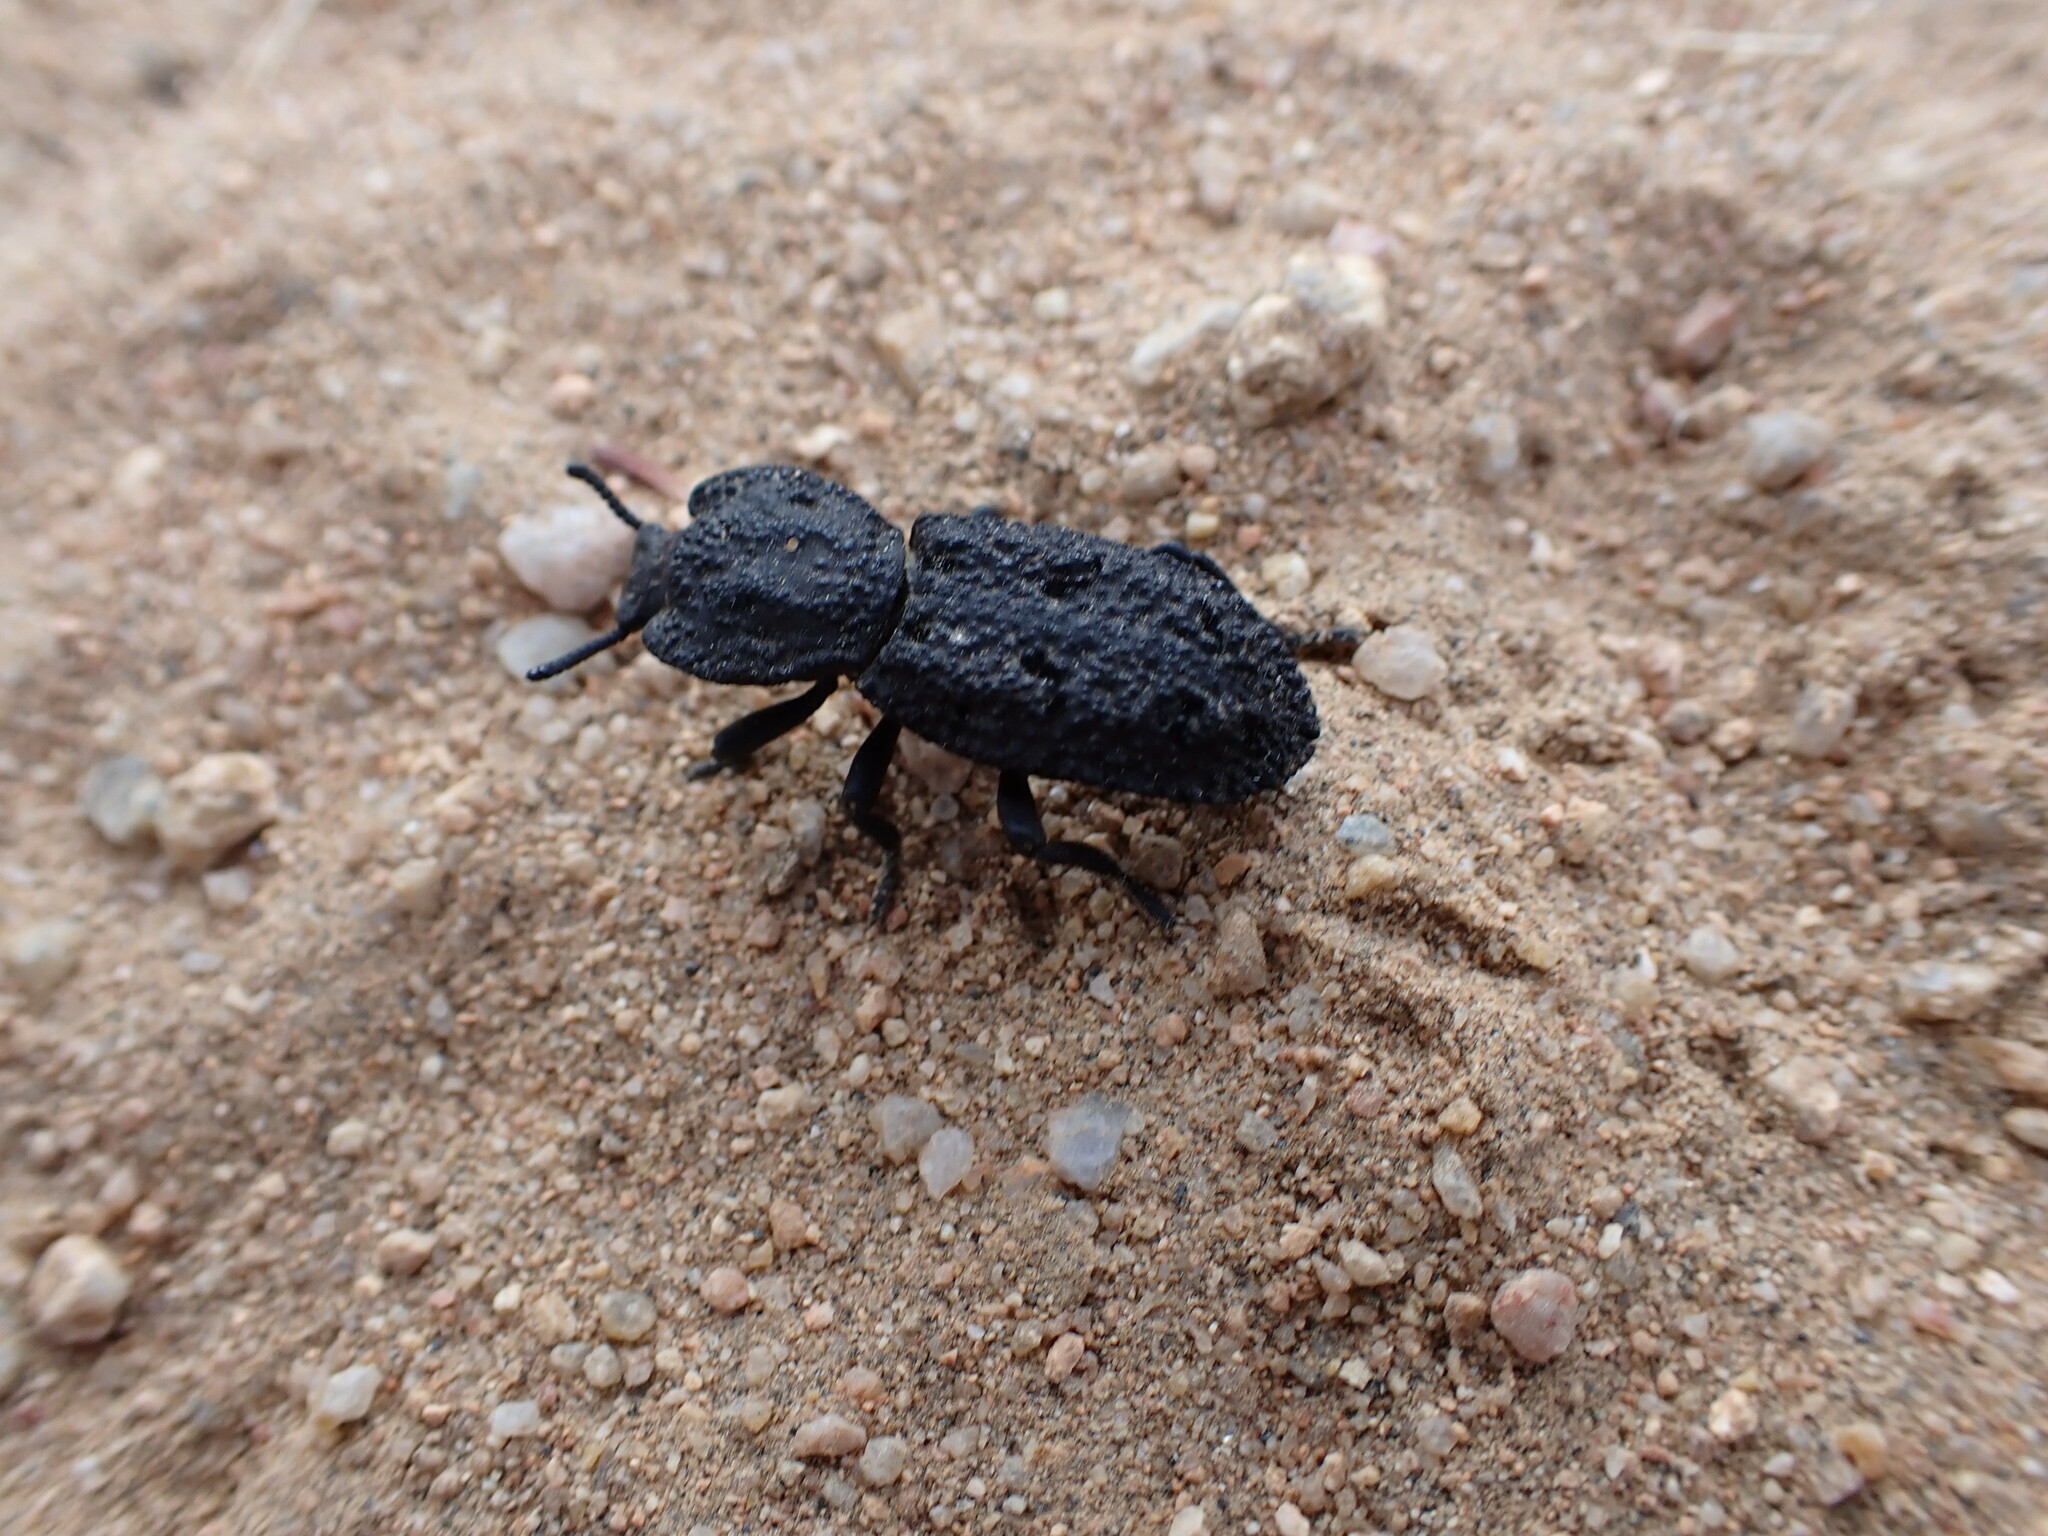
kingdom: Animalia
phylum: Arthropoda
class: Insecta
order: Coleoptera
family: Zopheridae
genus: Phloeodes
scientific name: Phloeodes diabolicus
